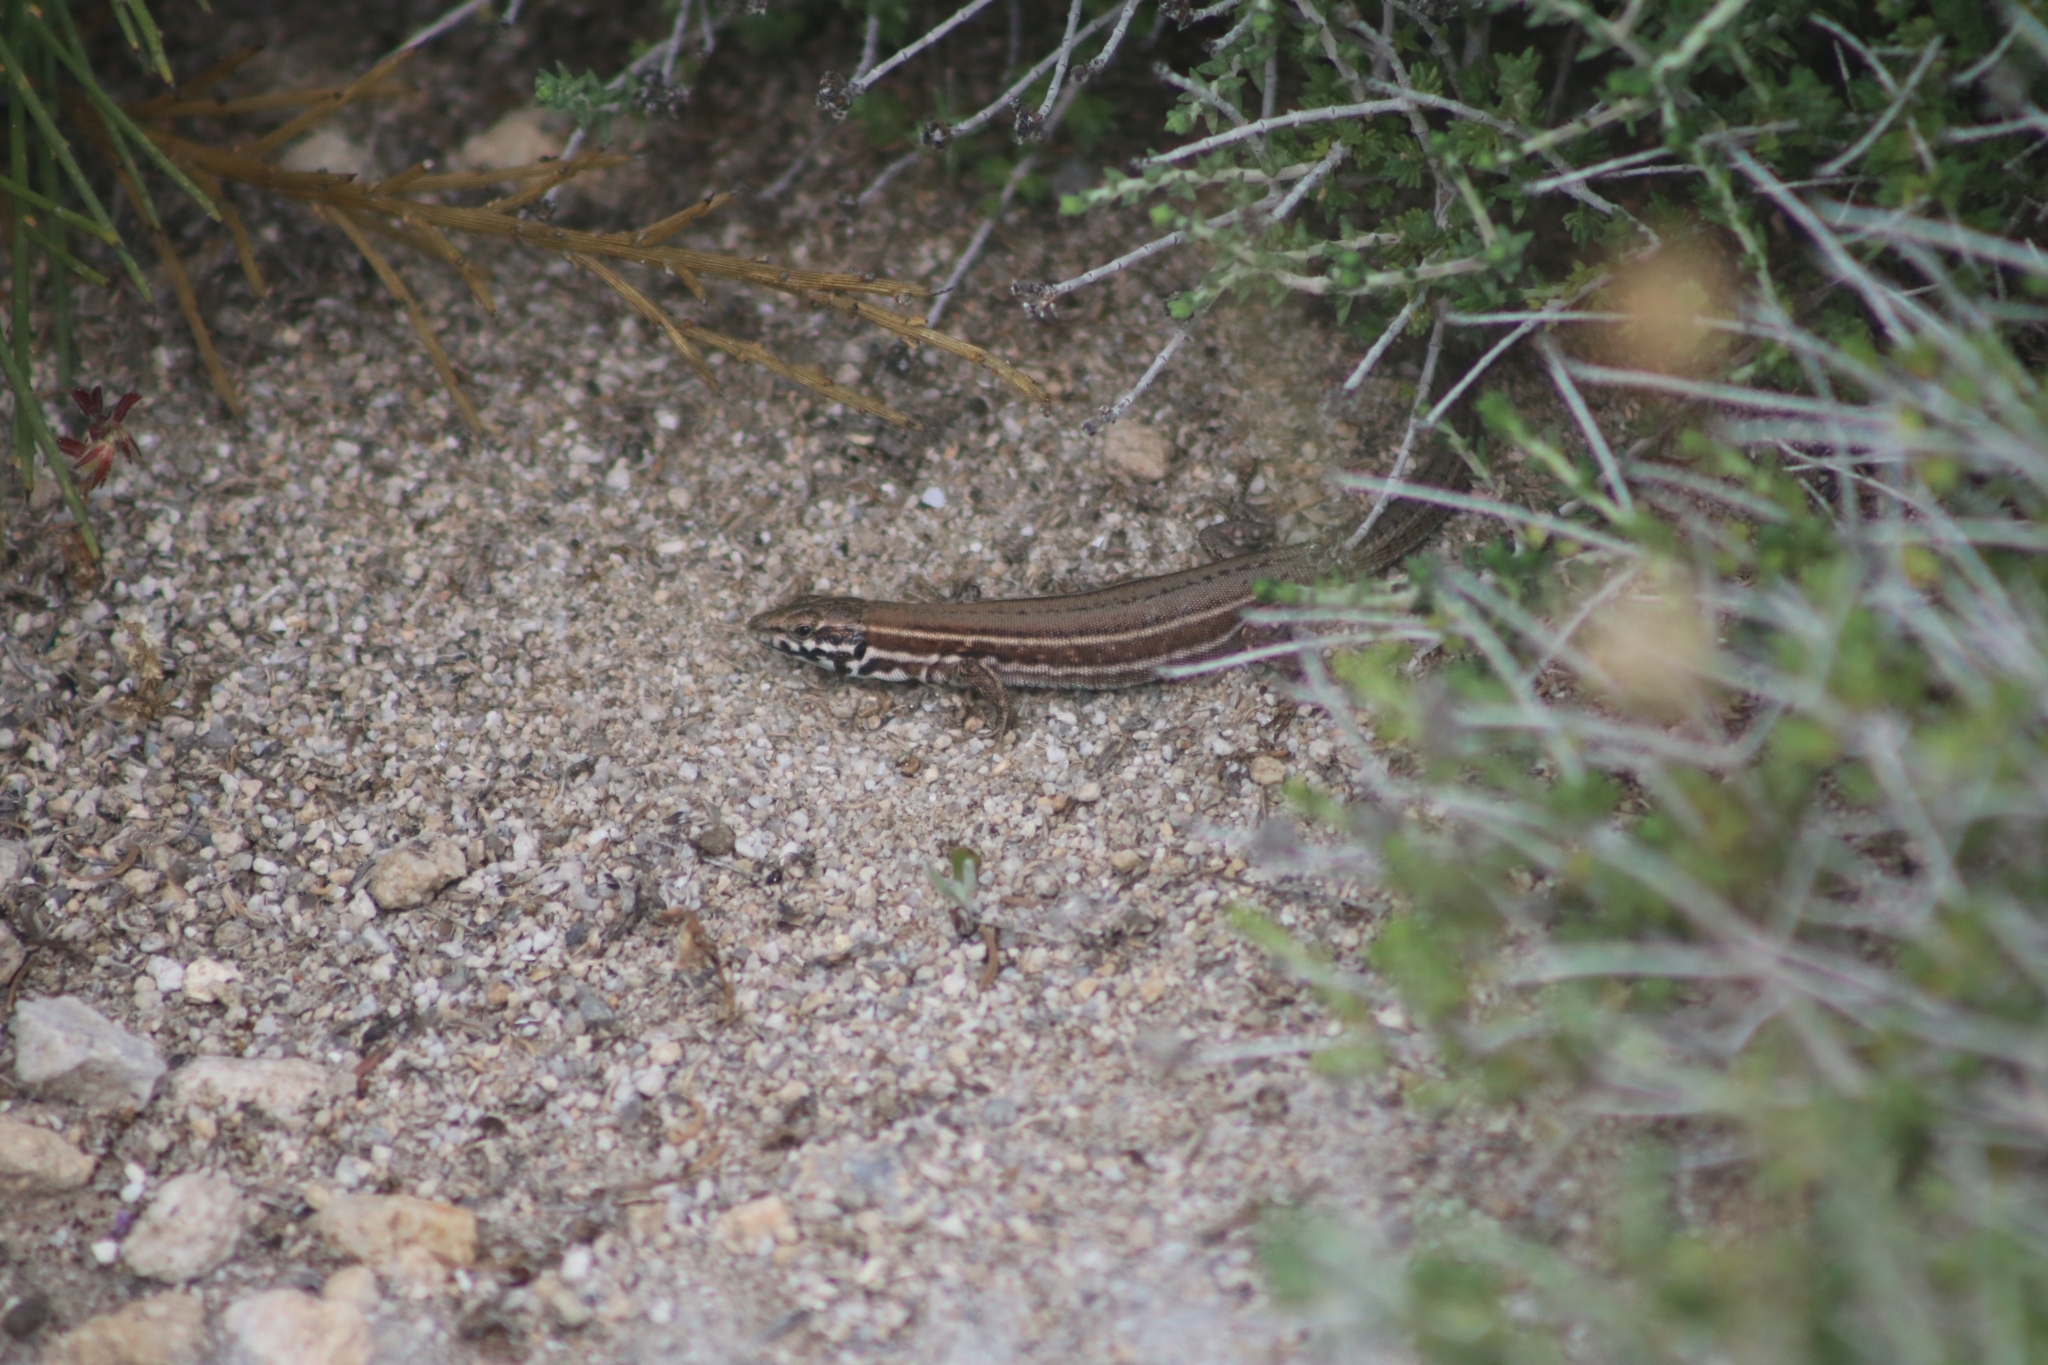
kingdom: Animalia
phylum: Chordata
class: Squamata
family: Lacertidae
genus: Podarcis
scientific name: Podarcis milensis
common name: Milos wall lizard
